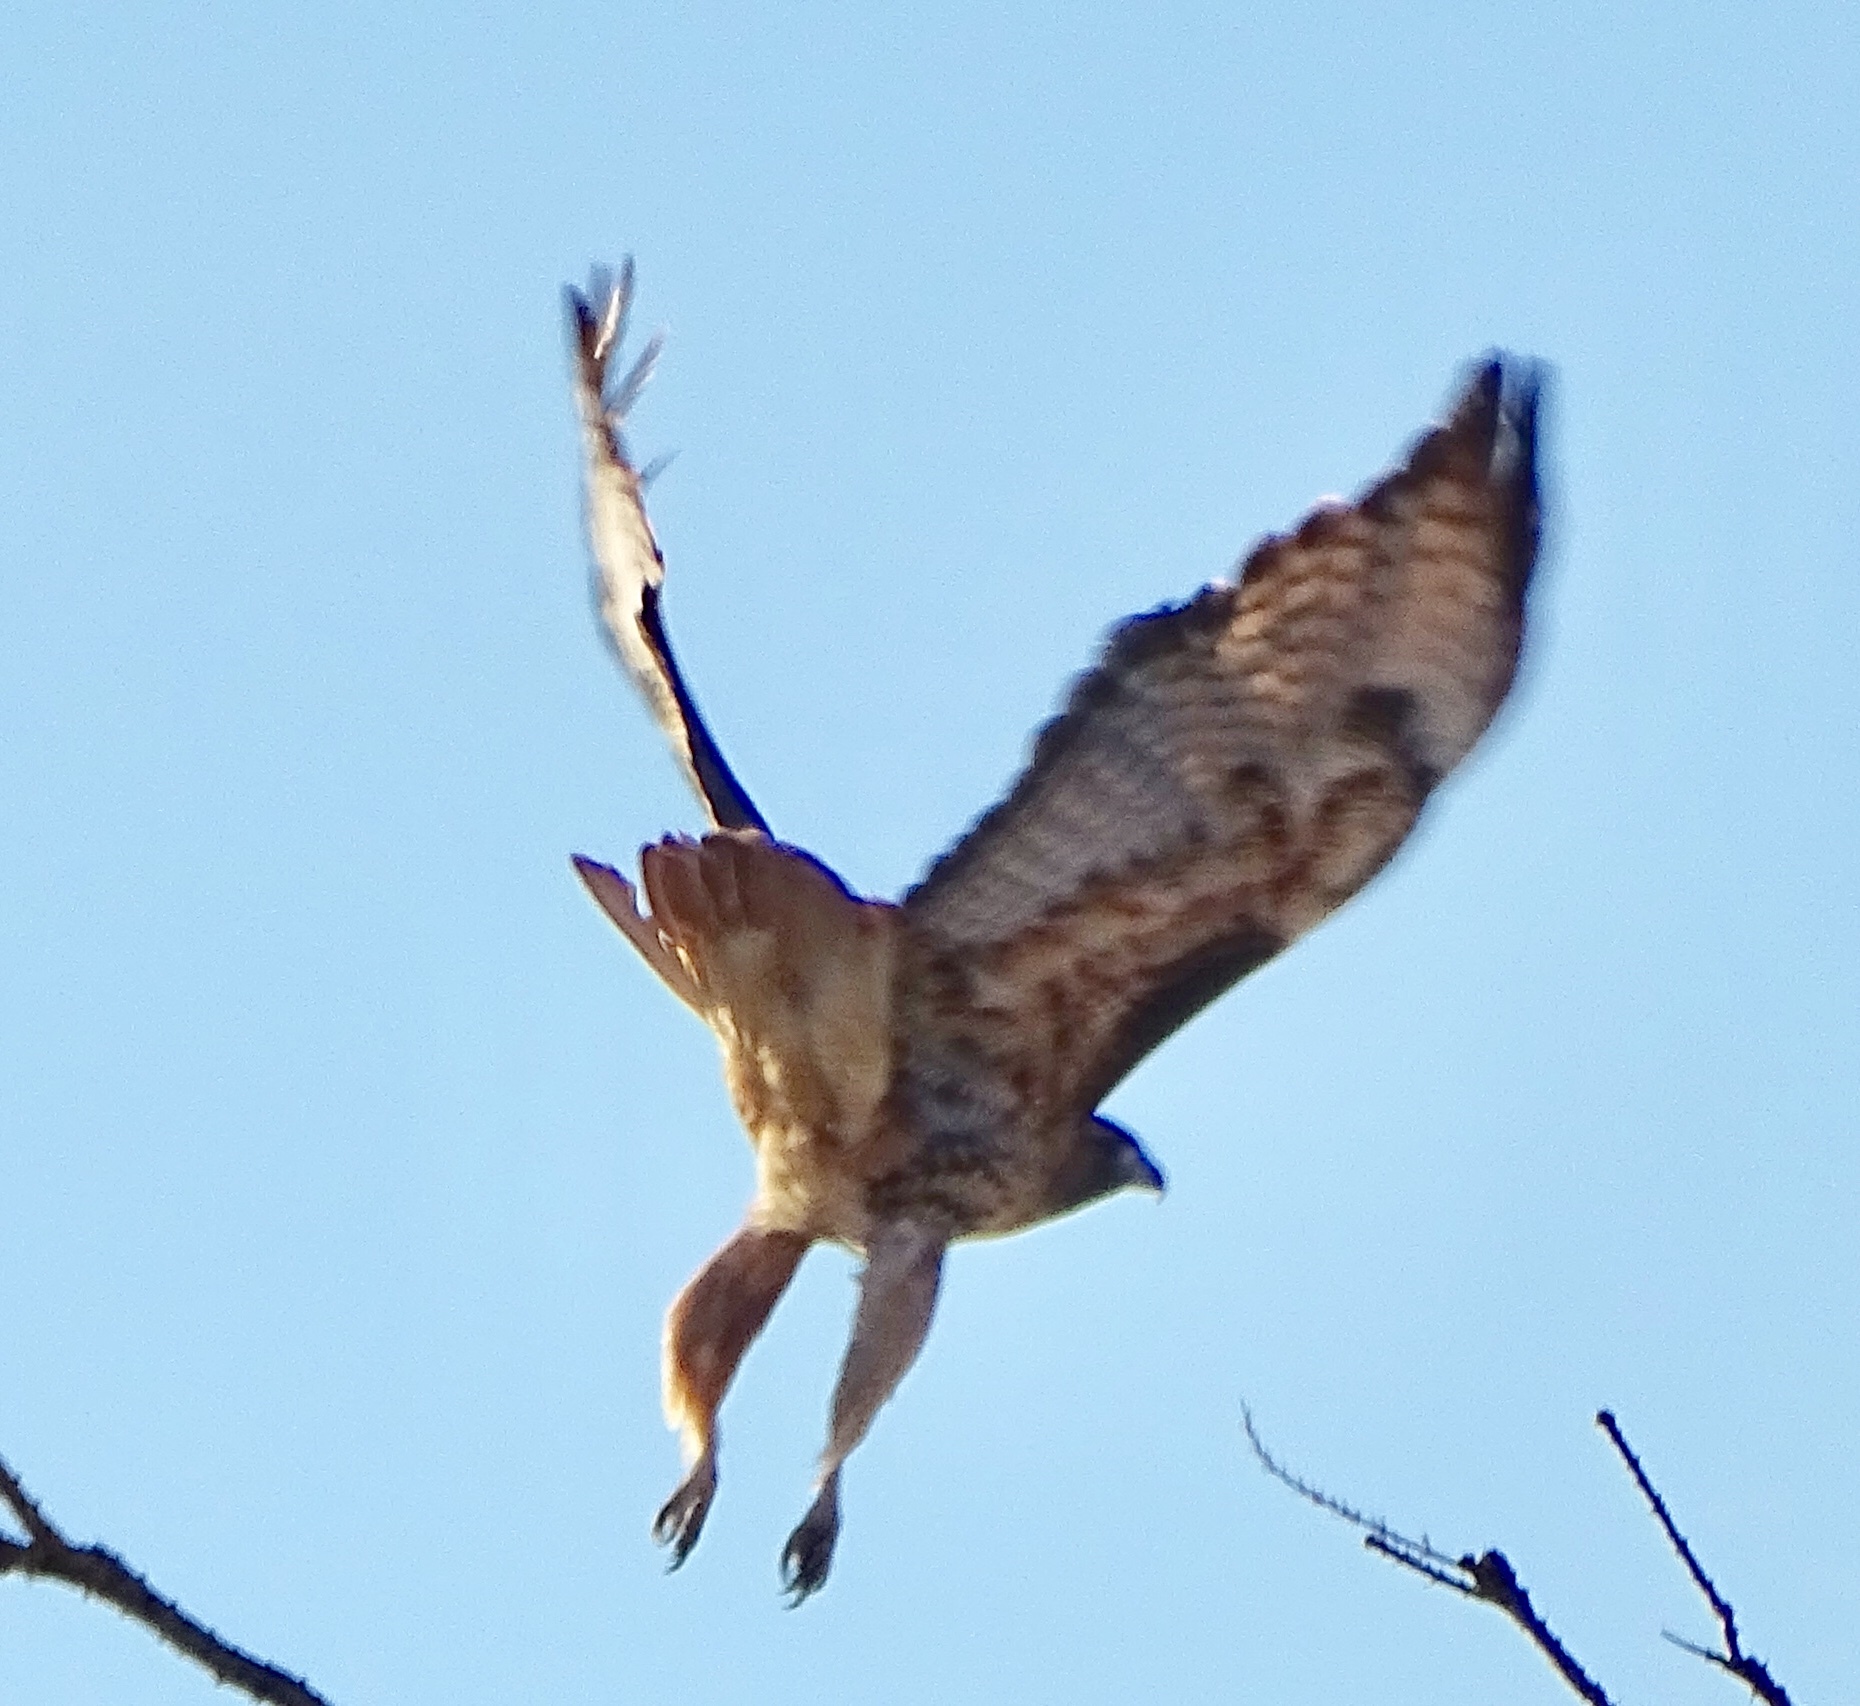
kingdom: Animalia
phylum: Chordata
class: Aves
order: Accipitriformes
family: Accipitridae
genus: Buteo
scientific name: Buteo jamaicensis
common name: Red-tailed hawk
